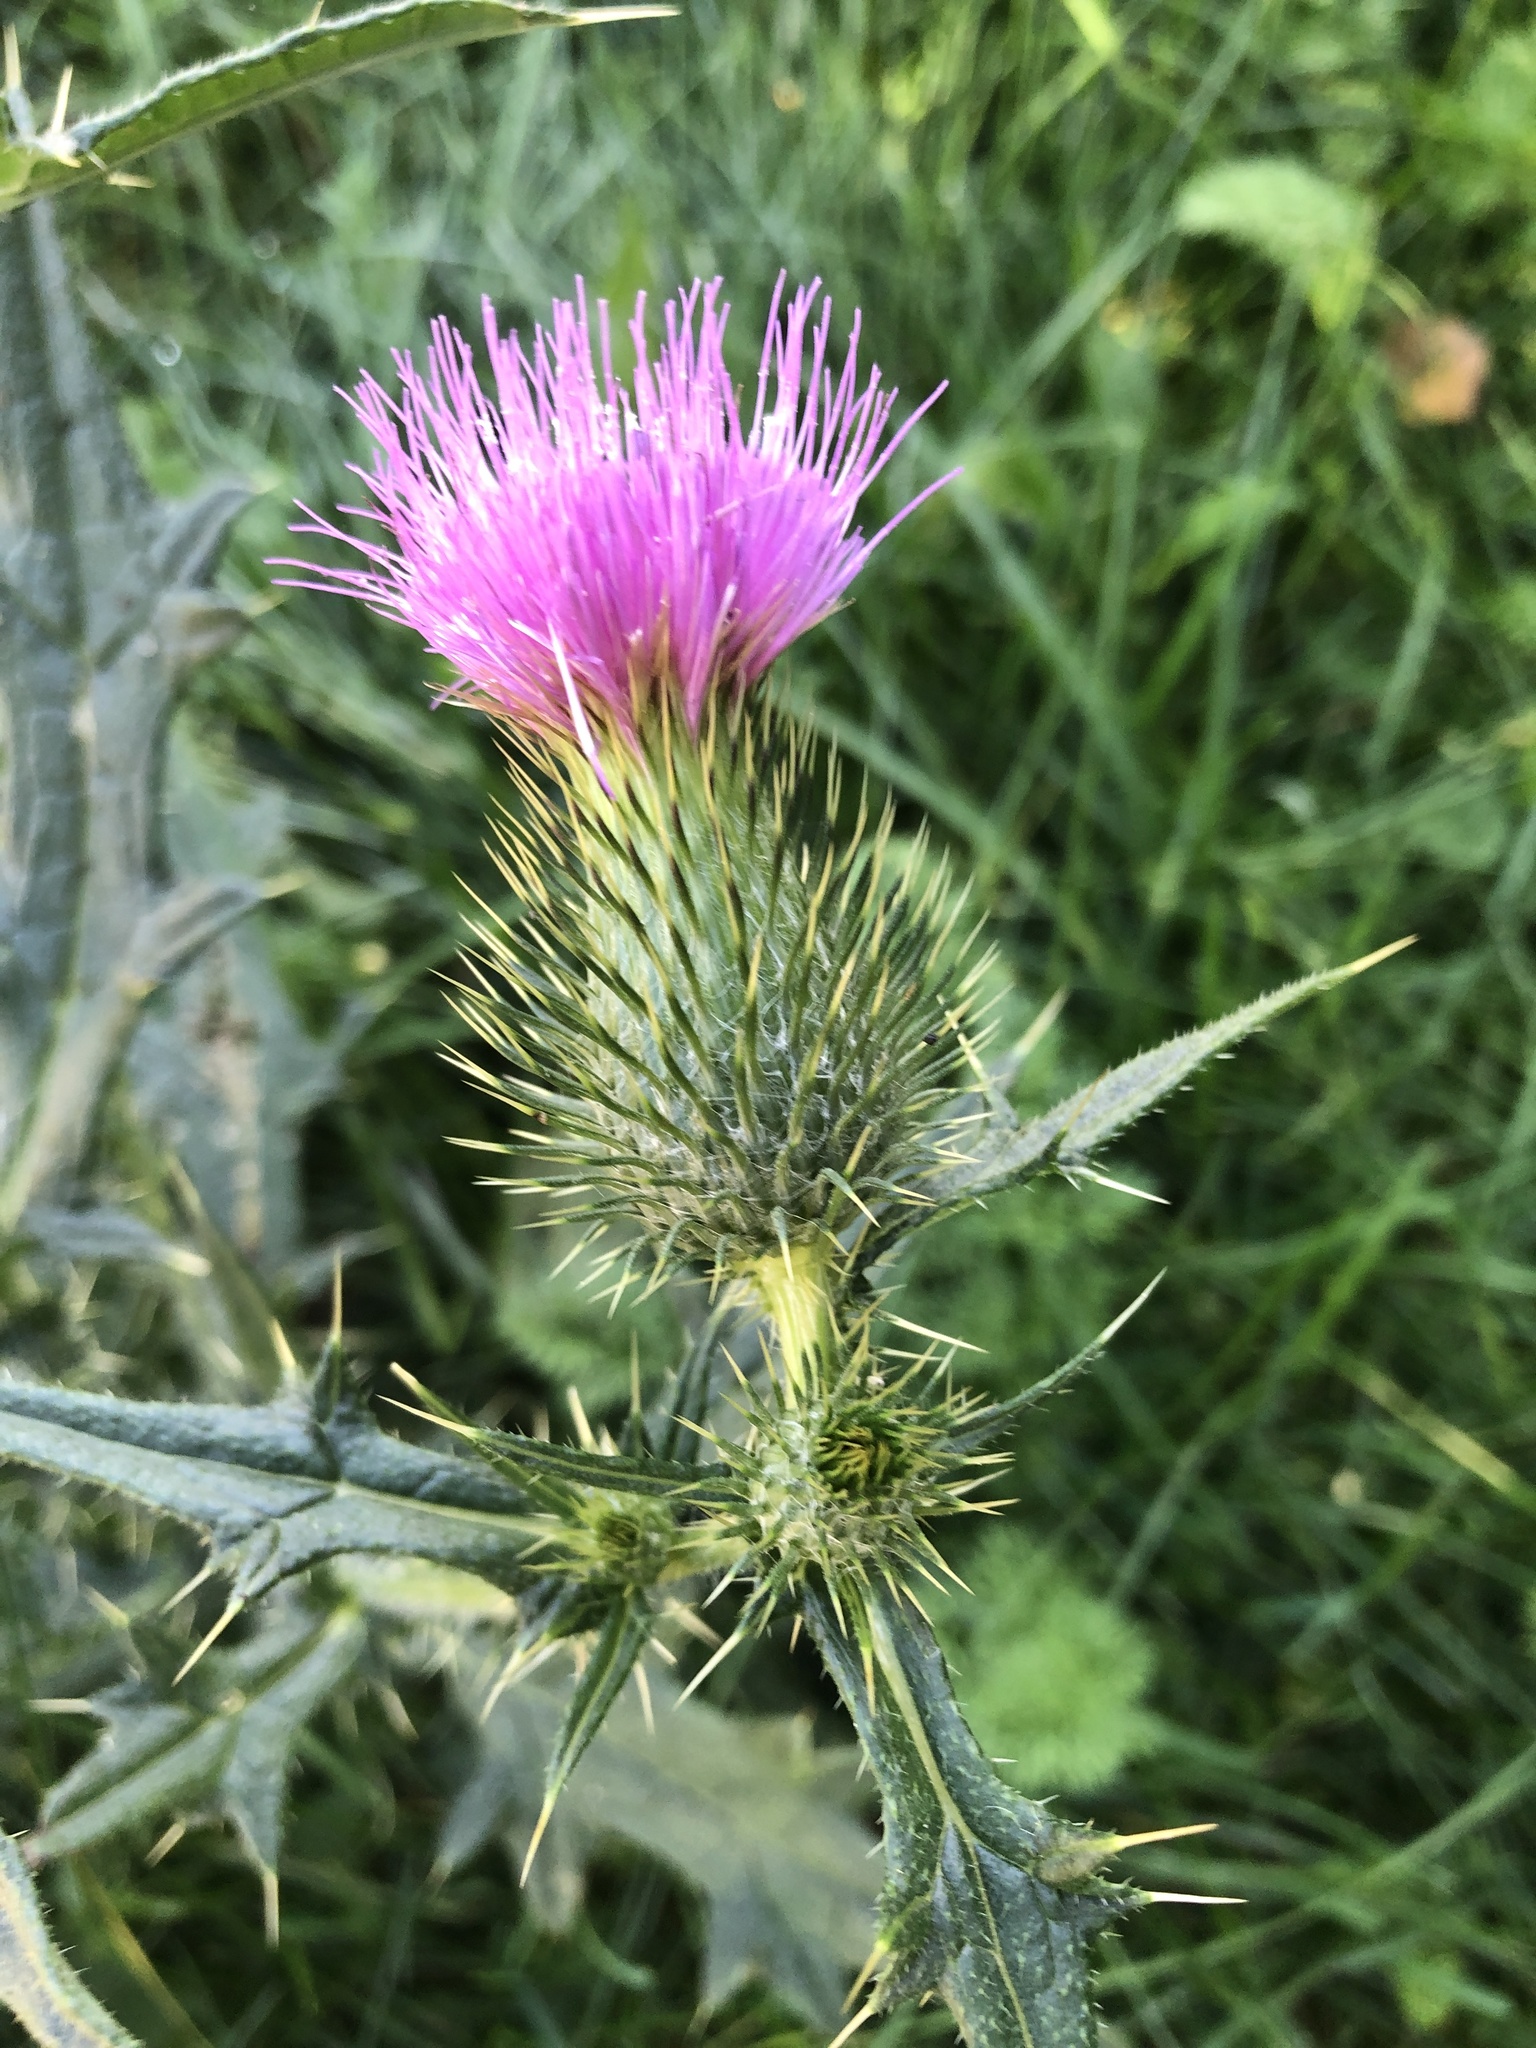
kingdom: Plantae
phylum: Tracheophyta
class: Magnoliopsida
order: Asterales
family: Asteraceae
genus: Cirsium
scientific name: Cirsium vulgare
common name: Bull thistle
